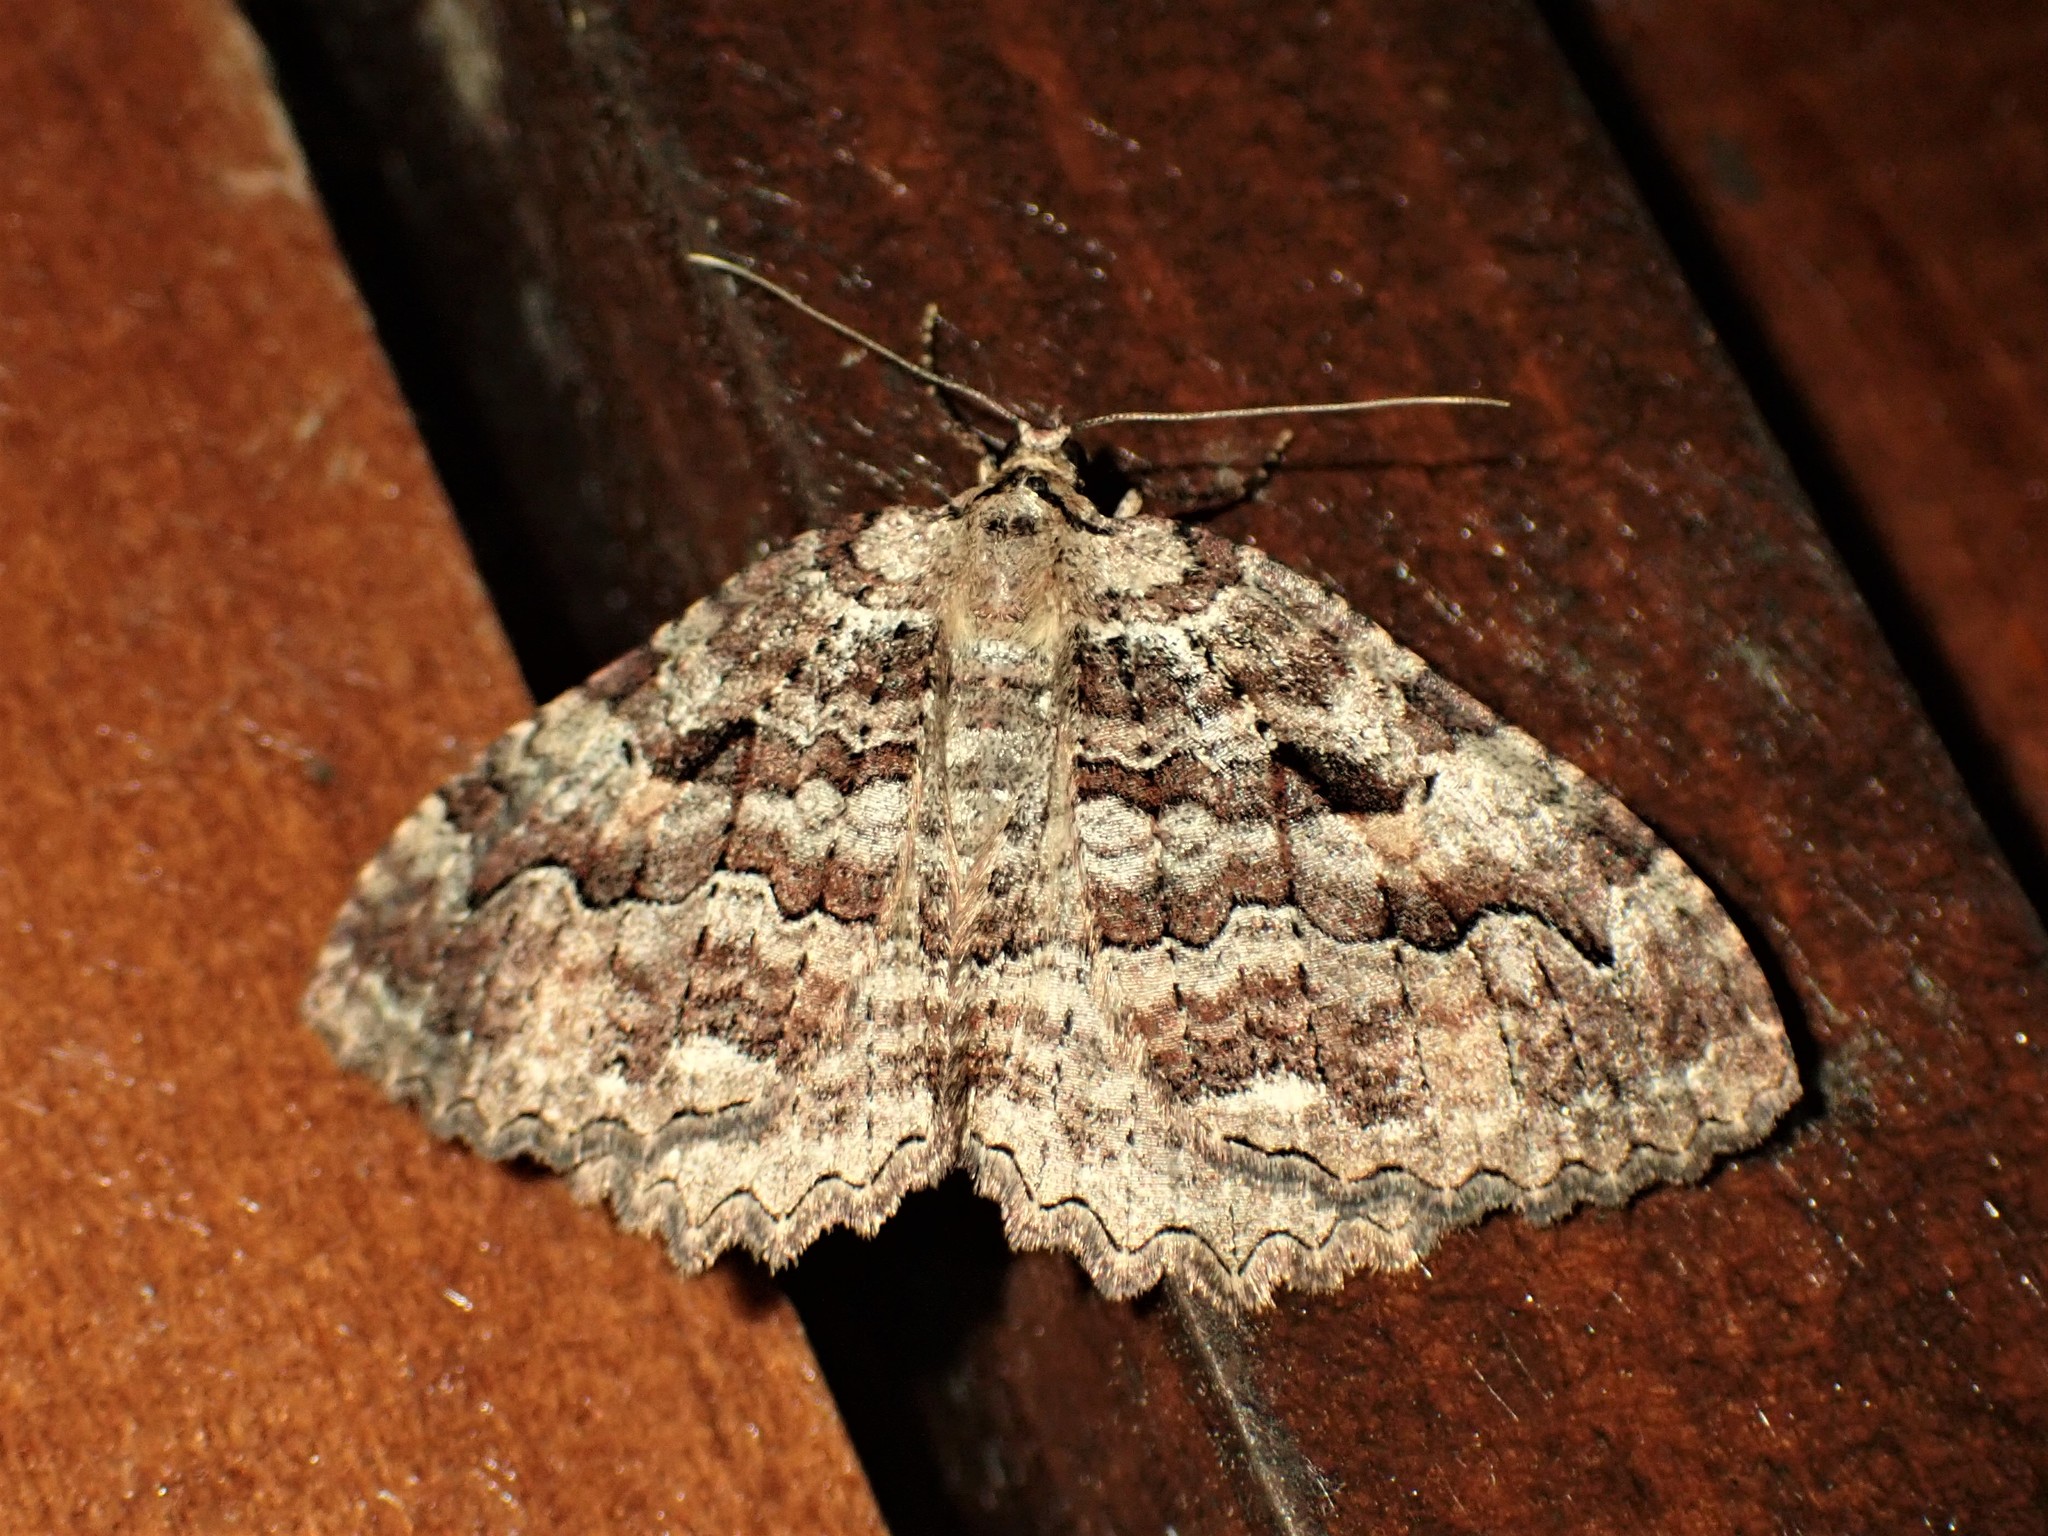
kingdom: Animalia
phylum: Arthropoda
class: Insecta
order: Lepidoptera
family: Geometridae
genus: Triphosa
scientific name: Triphosa haesitata
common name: Tissue moth
